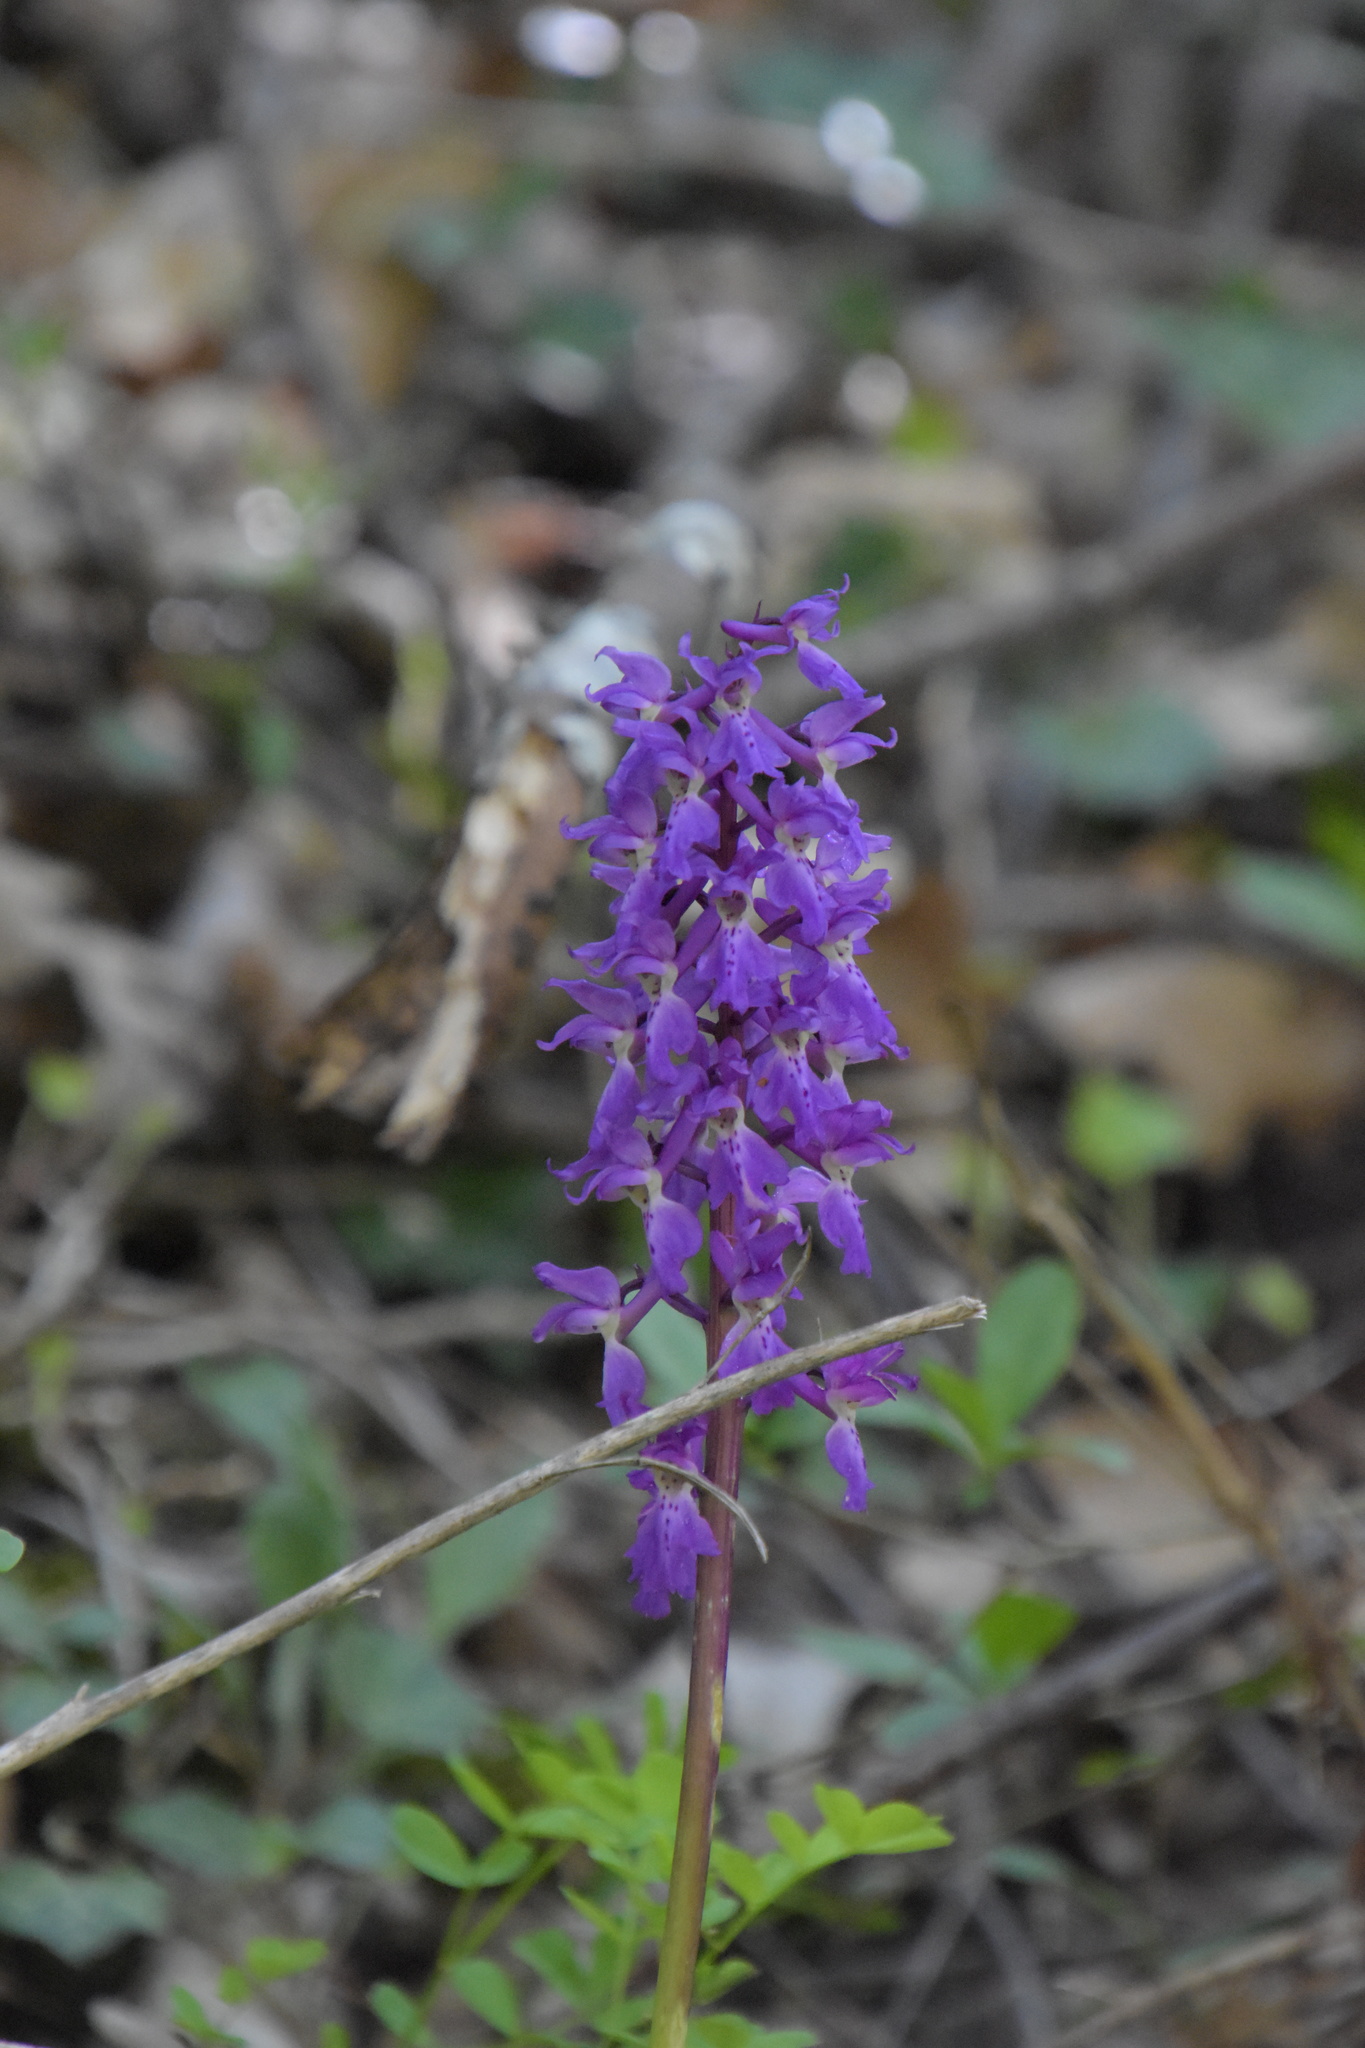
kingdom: Plantae
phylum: Tracheophyta
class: Liliopsida
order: Asparagales
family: Orchidaceae
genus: Orchis
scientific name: Orchis mascula
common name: Early-purple orchid
